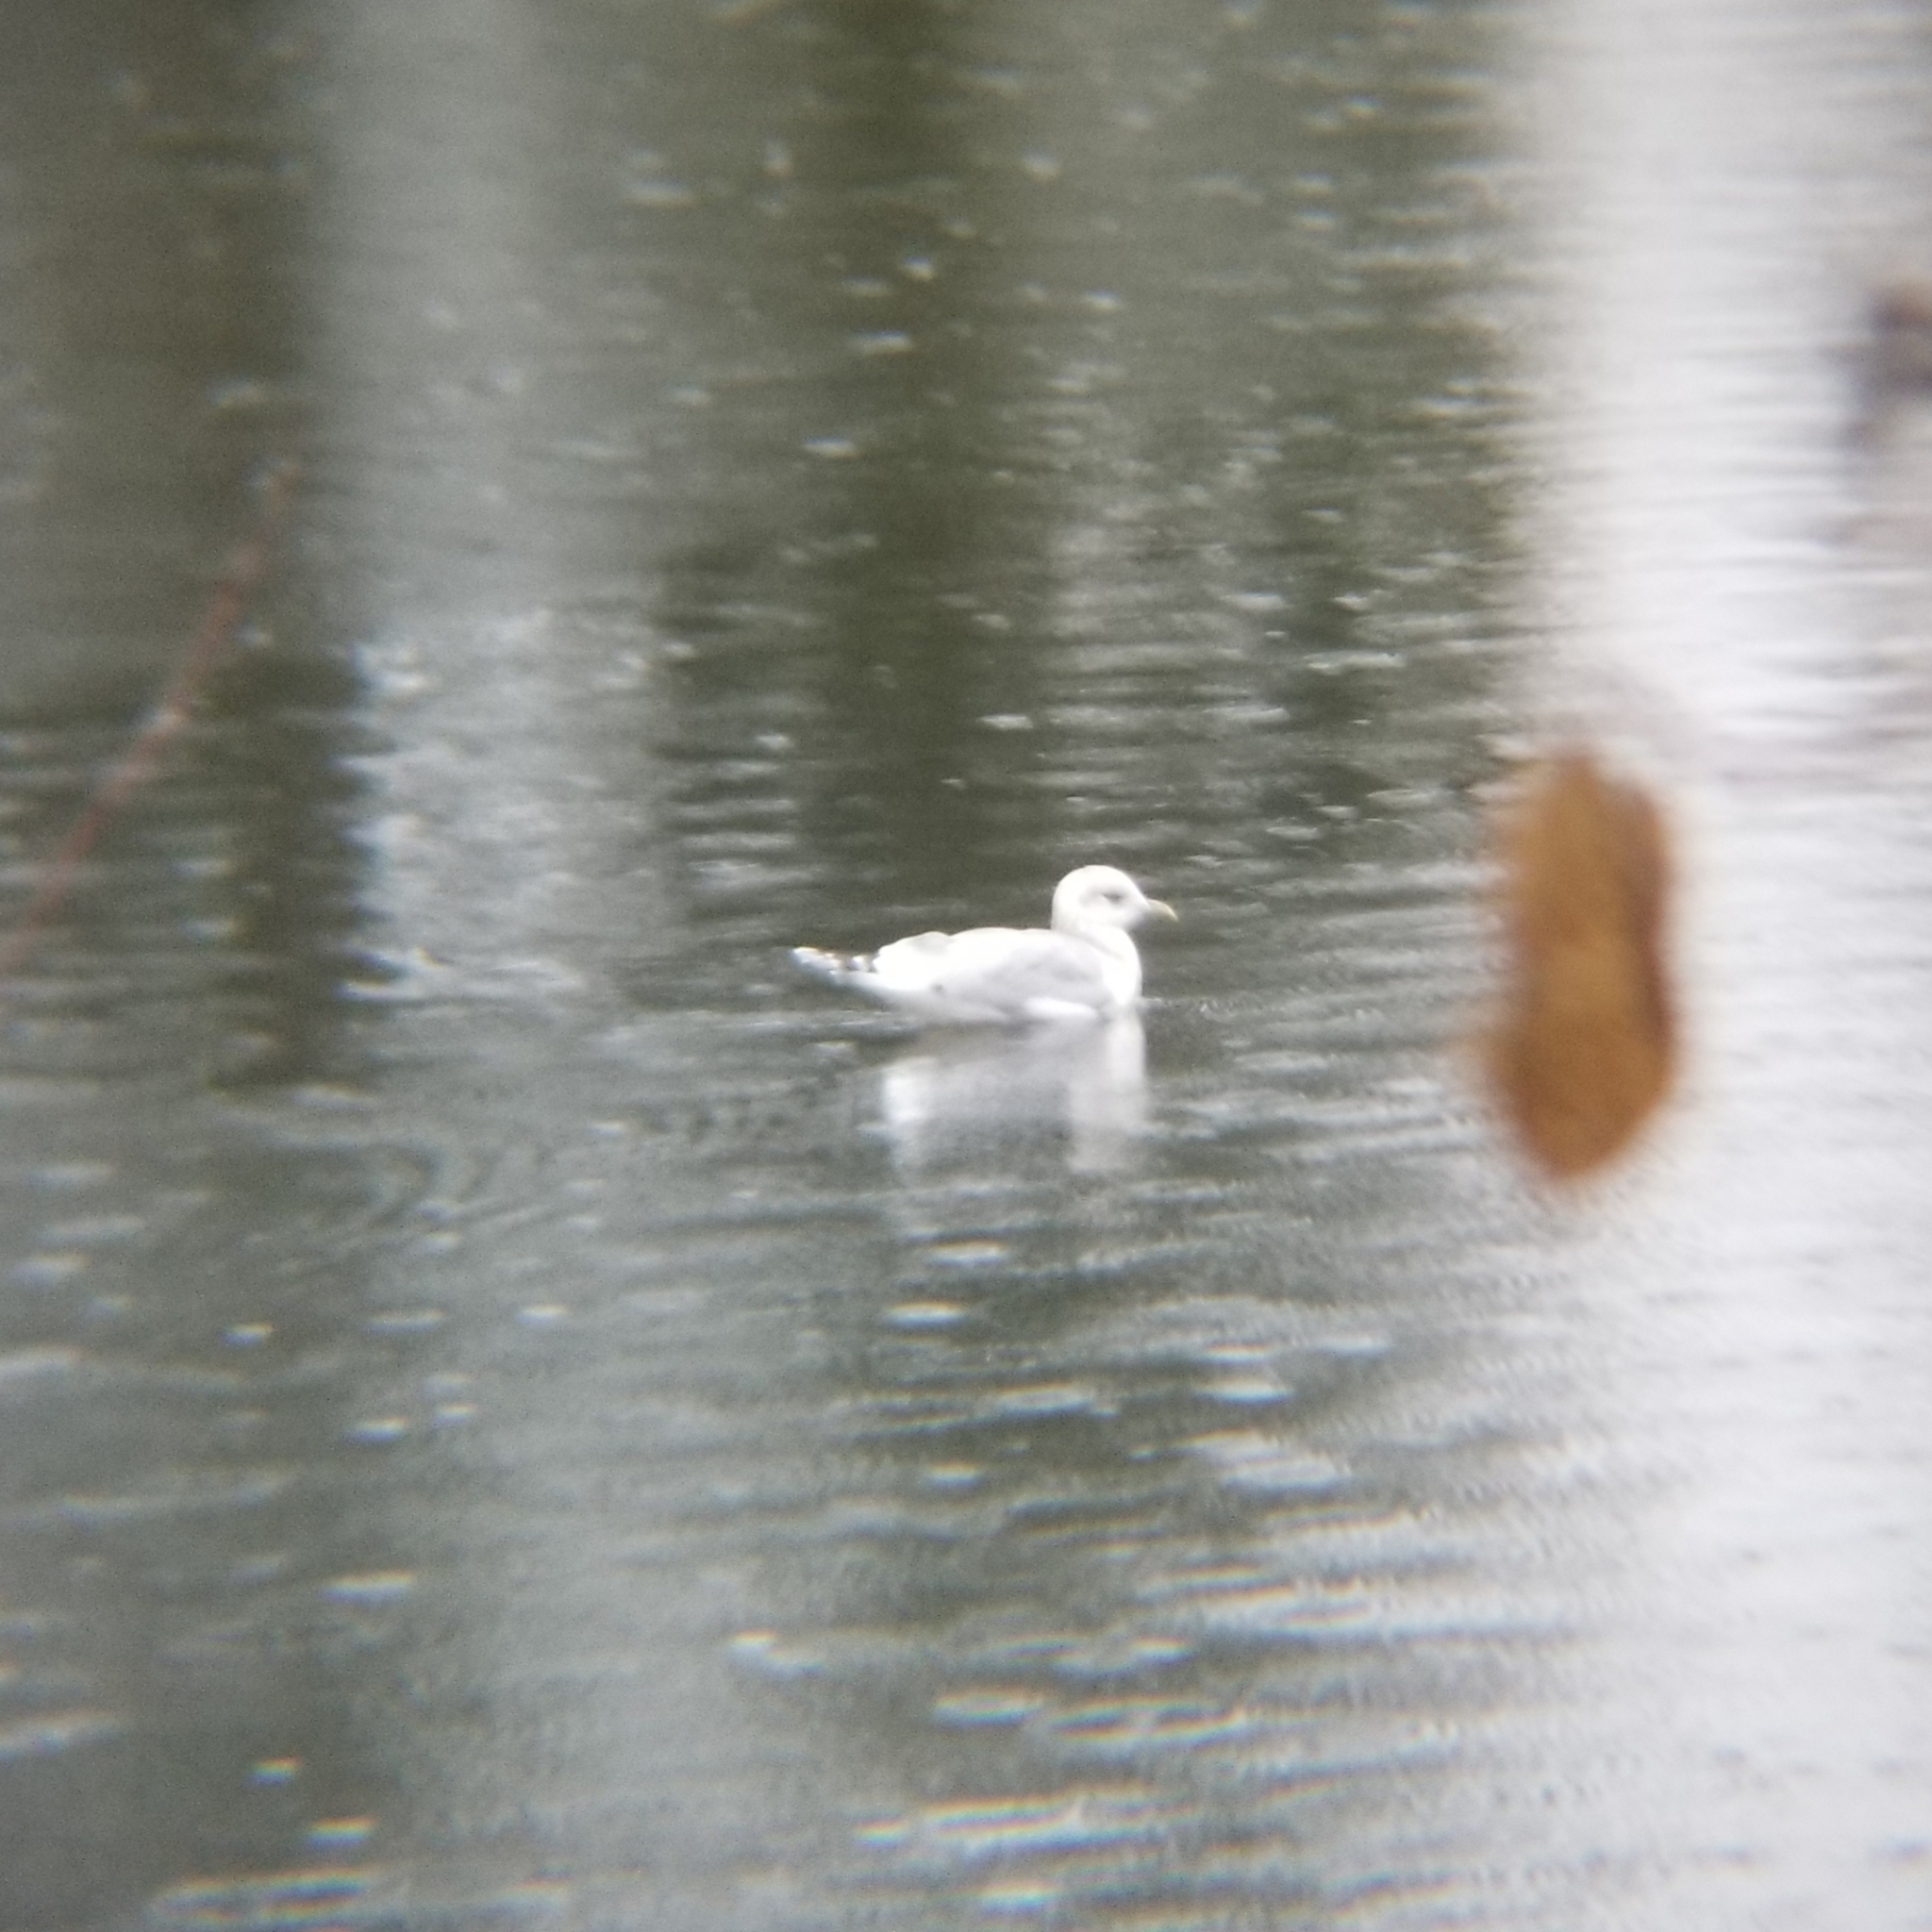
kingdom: Animalia
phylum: Chordata
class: Aves
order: Charadriiformes
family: Laridae
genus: Larus
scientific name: Larus brachyrhynchus
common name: Short-billed gull
